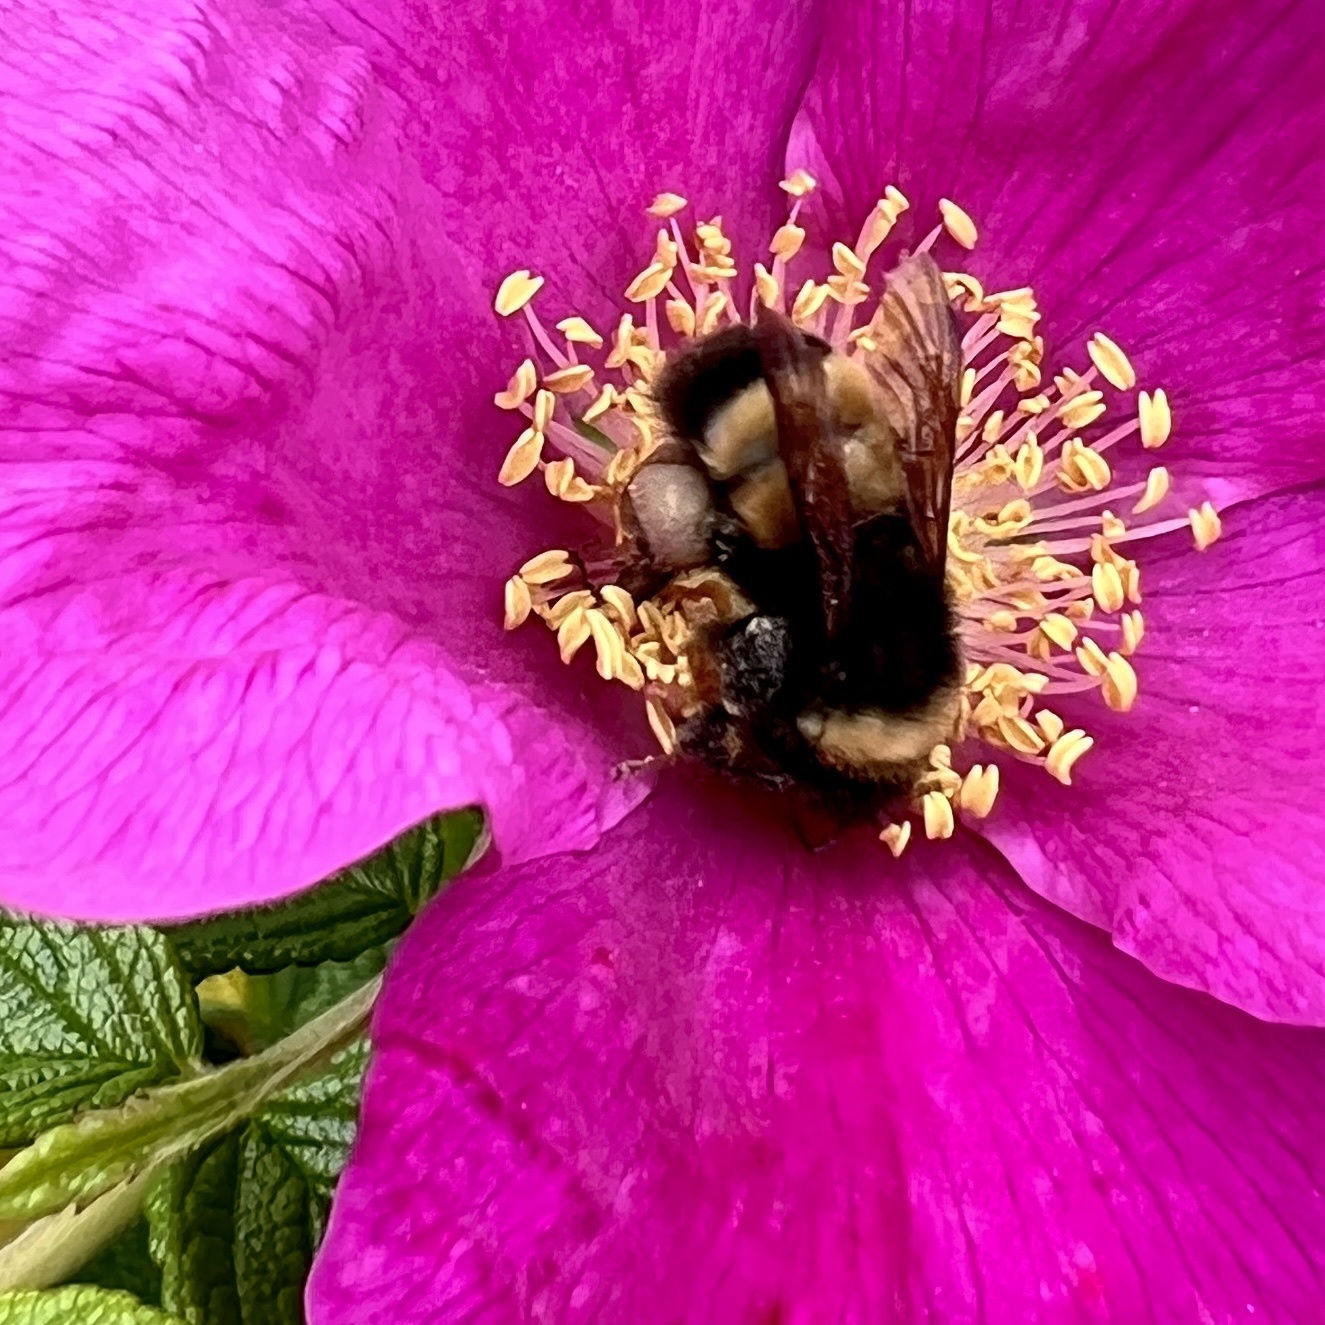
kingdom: Animalia
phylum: Arthropoda
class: Insecta
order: Hymenoptera
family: Apidae
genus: Bombus
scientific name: Bombus terricola
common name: Yellow-banded bumble bee
